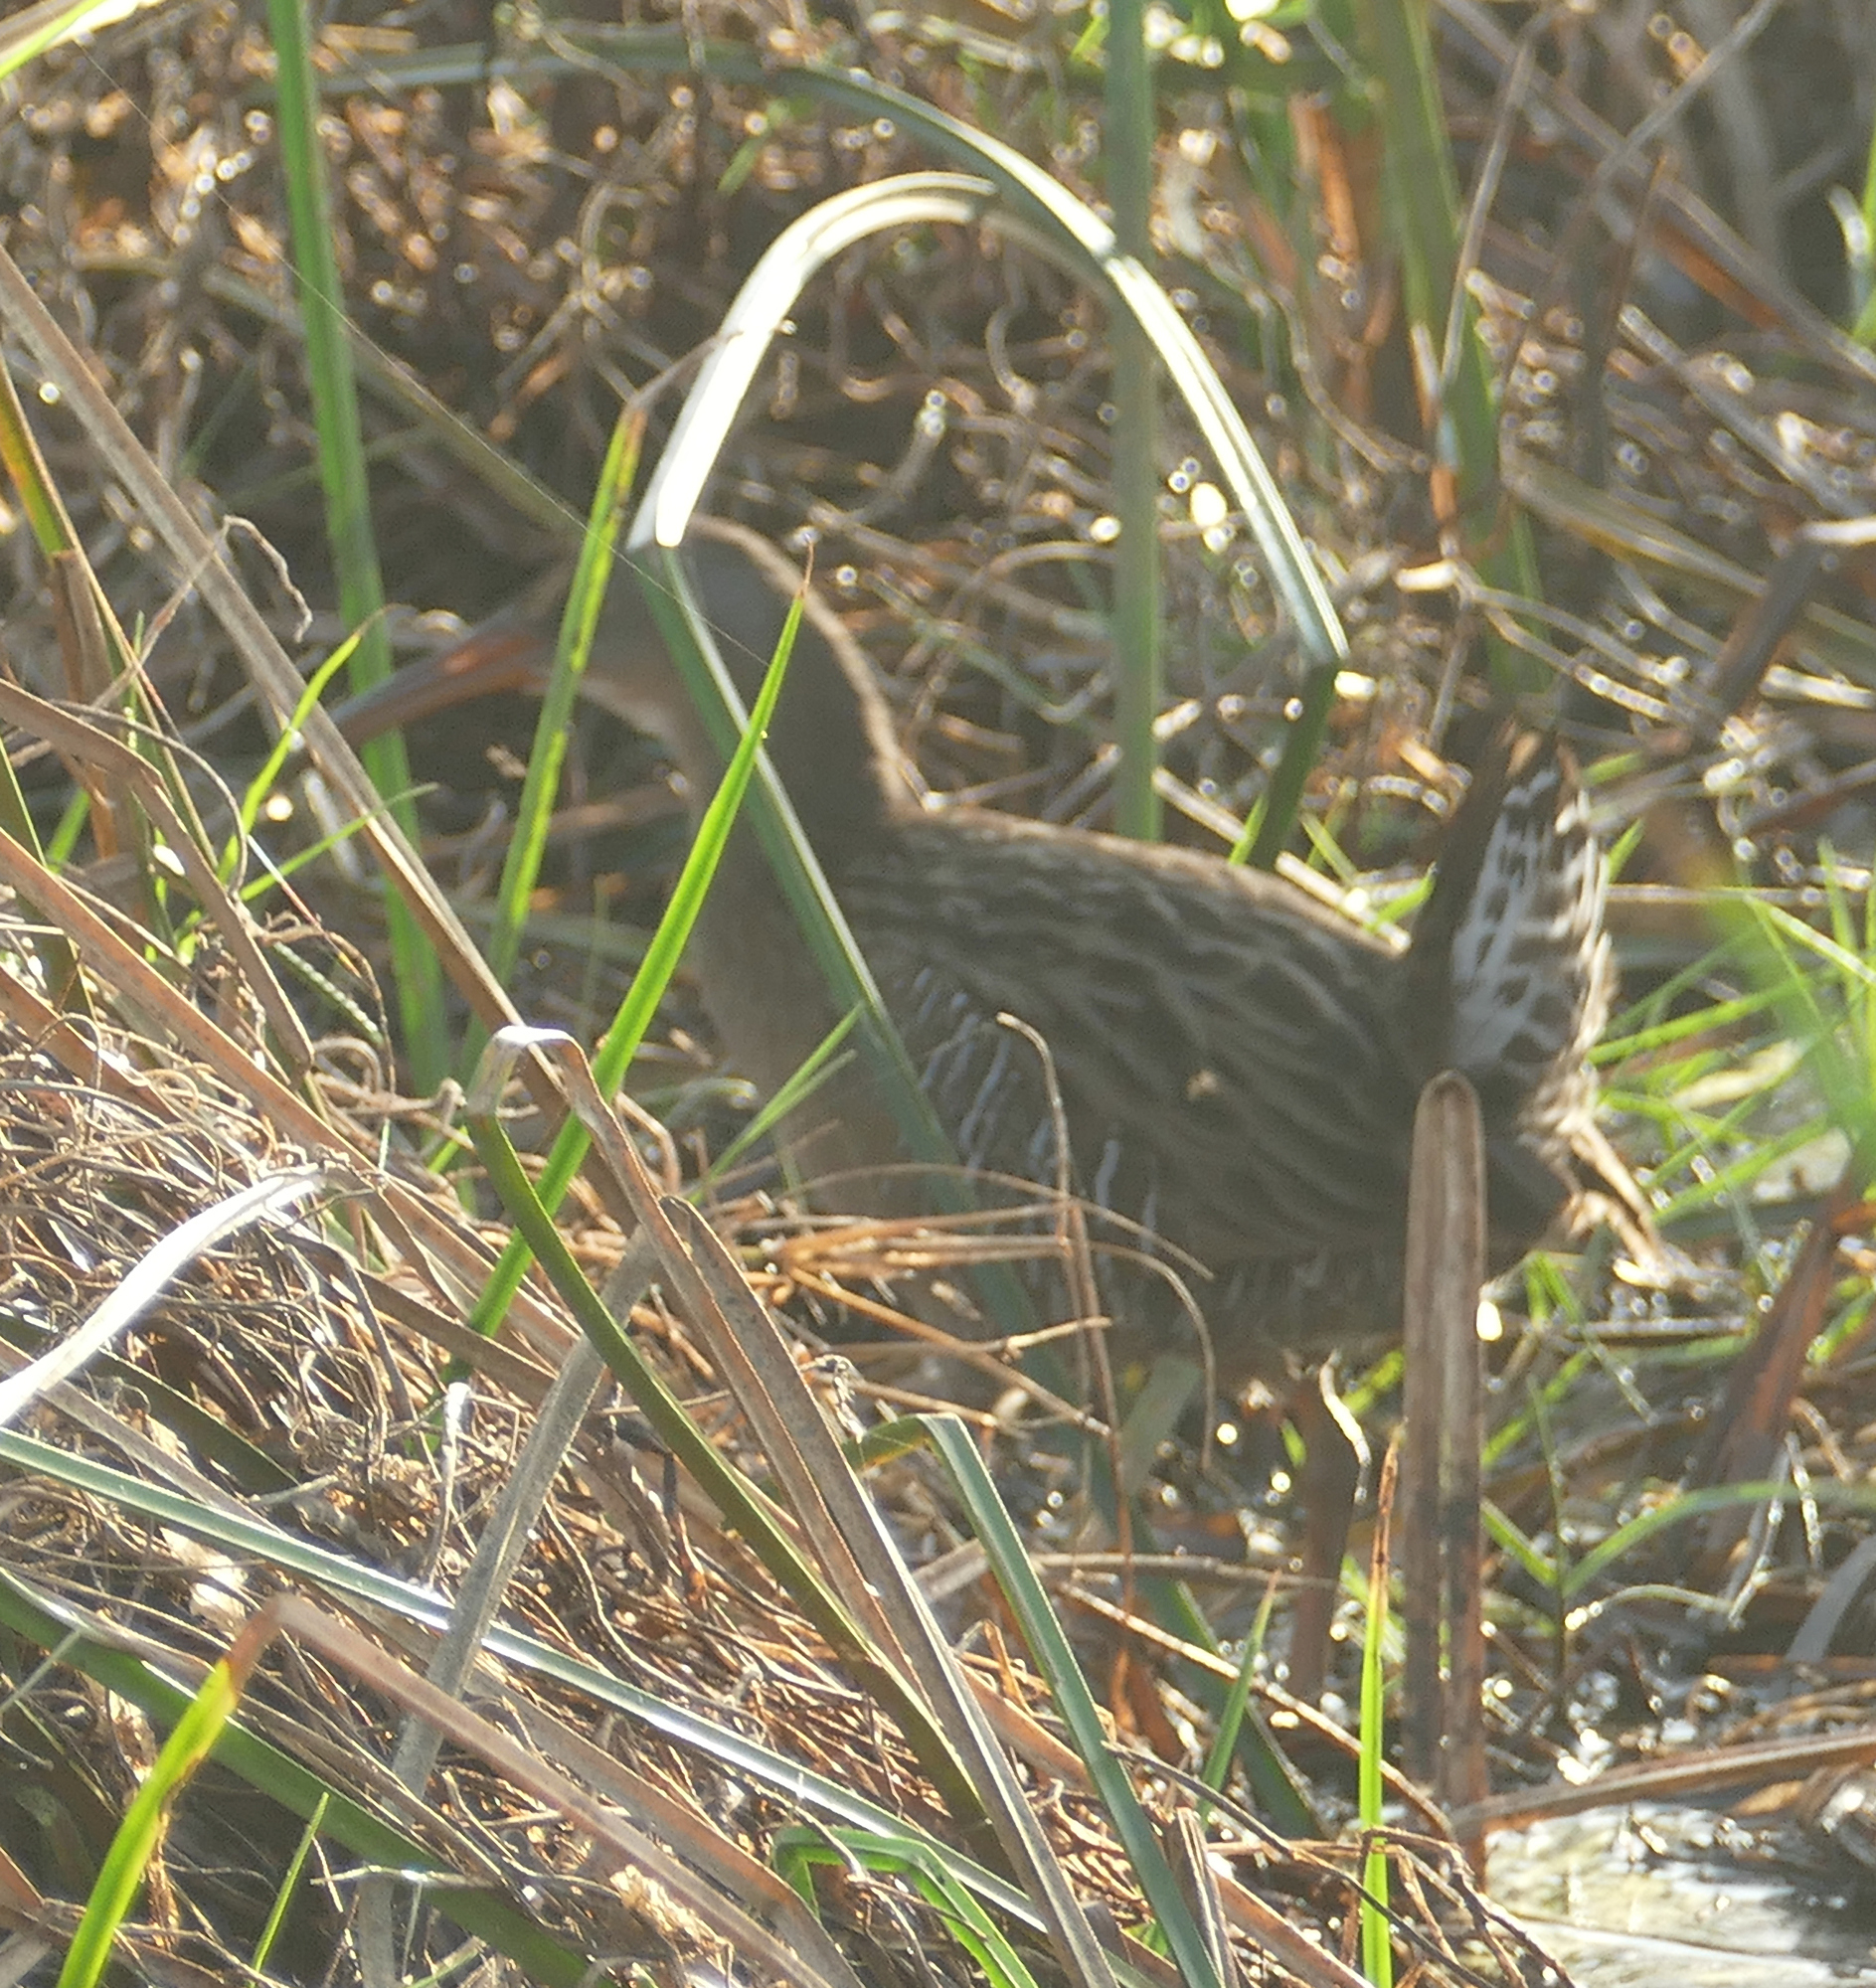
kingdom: Animalia
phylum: Chordata
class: Aves
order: Gruiformes
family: Rallidae
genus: Rallus
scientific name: Rallus crepitans
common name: Clapper rail
